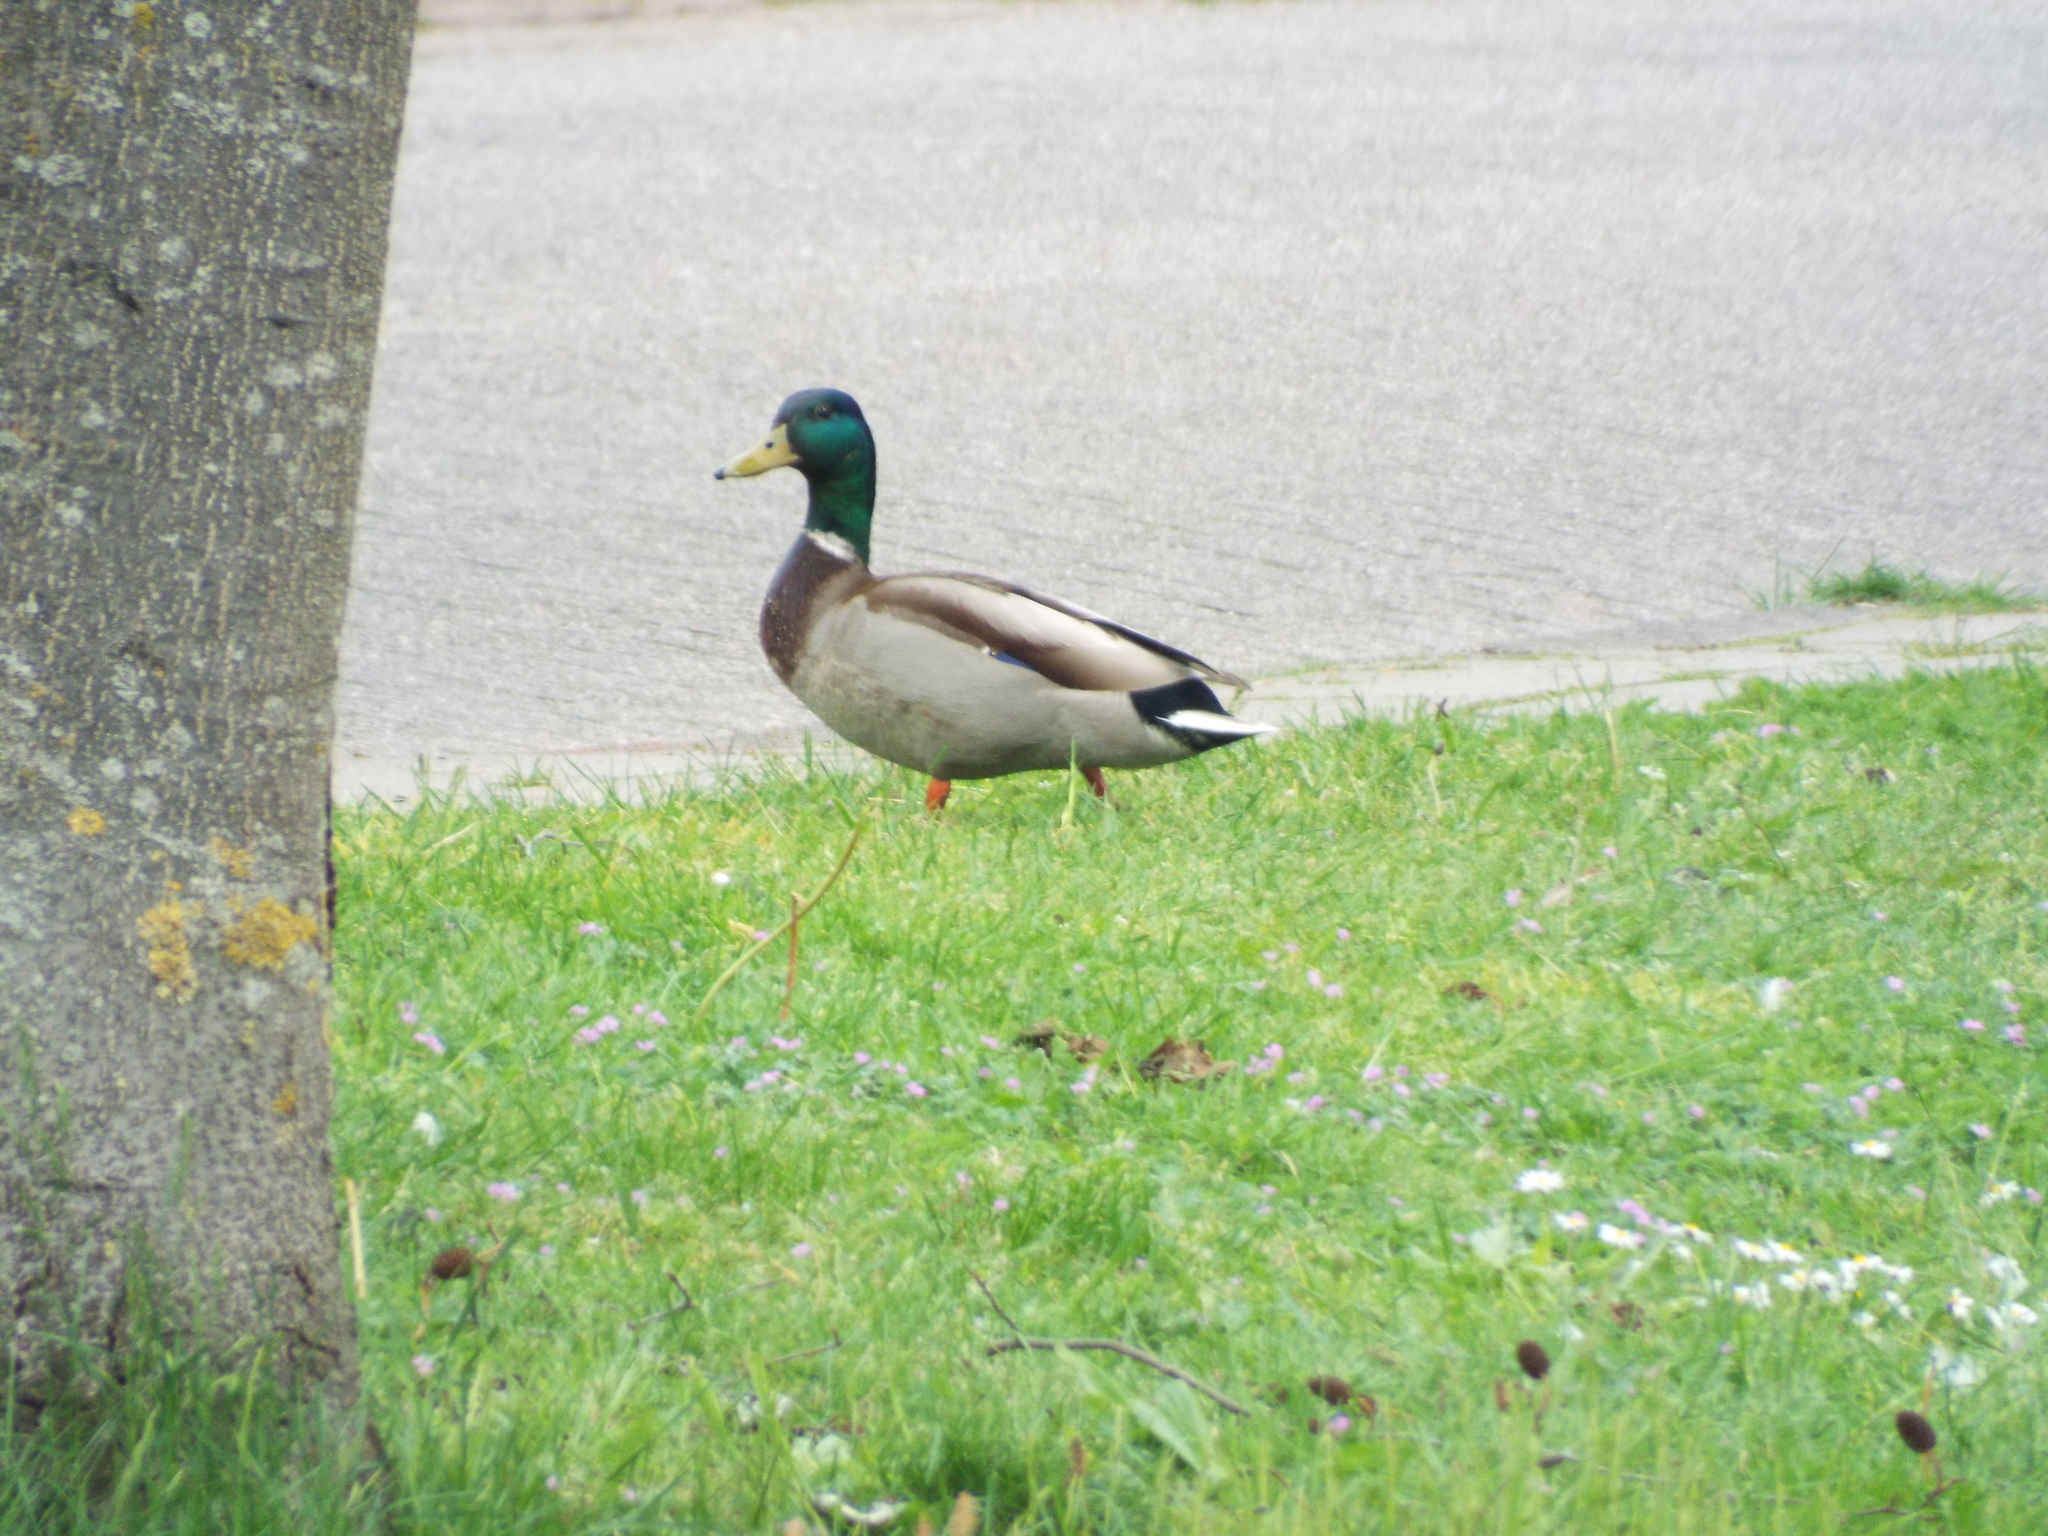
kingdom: Animalia
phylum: Chordata
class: Aves
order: Anseriformes
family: Anatidae
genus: Anas
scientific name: Anas platyrhynchos
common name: Mallard
